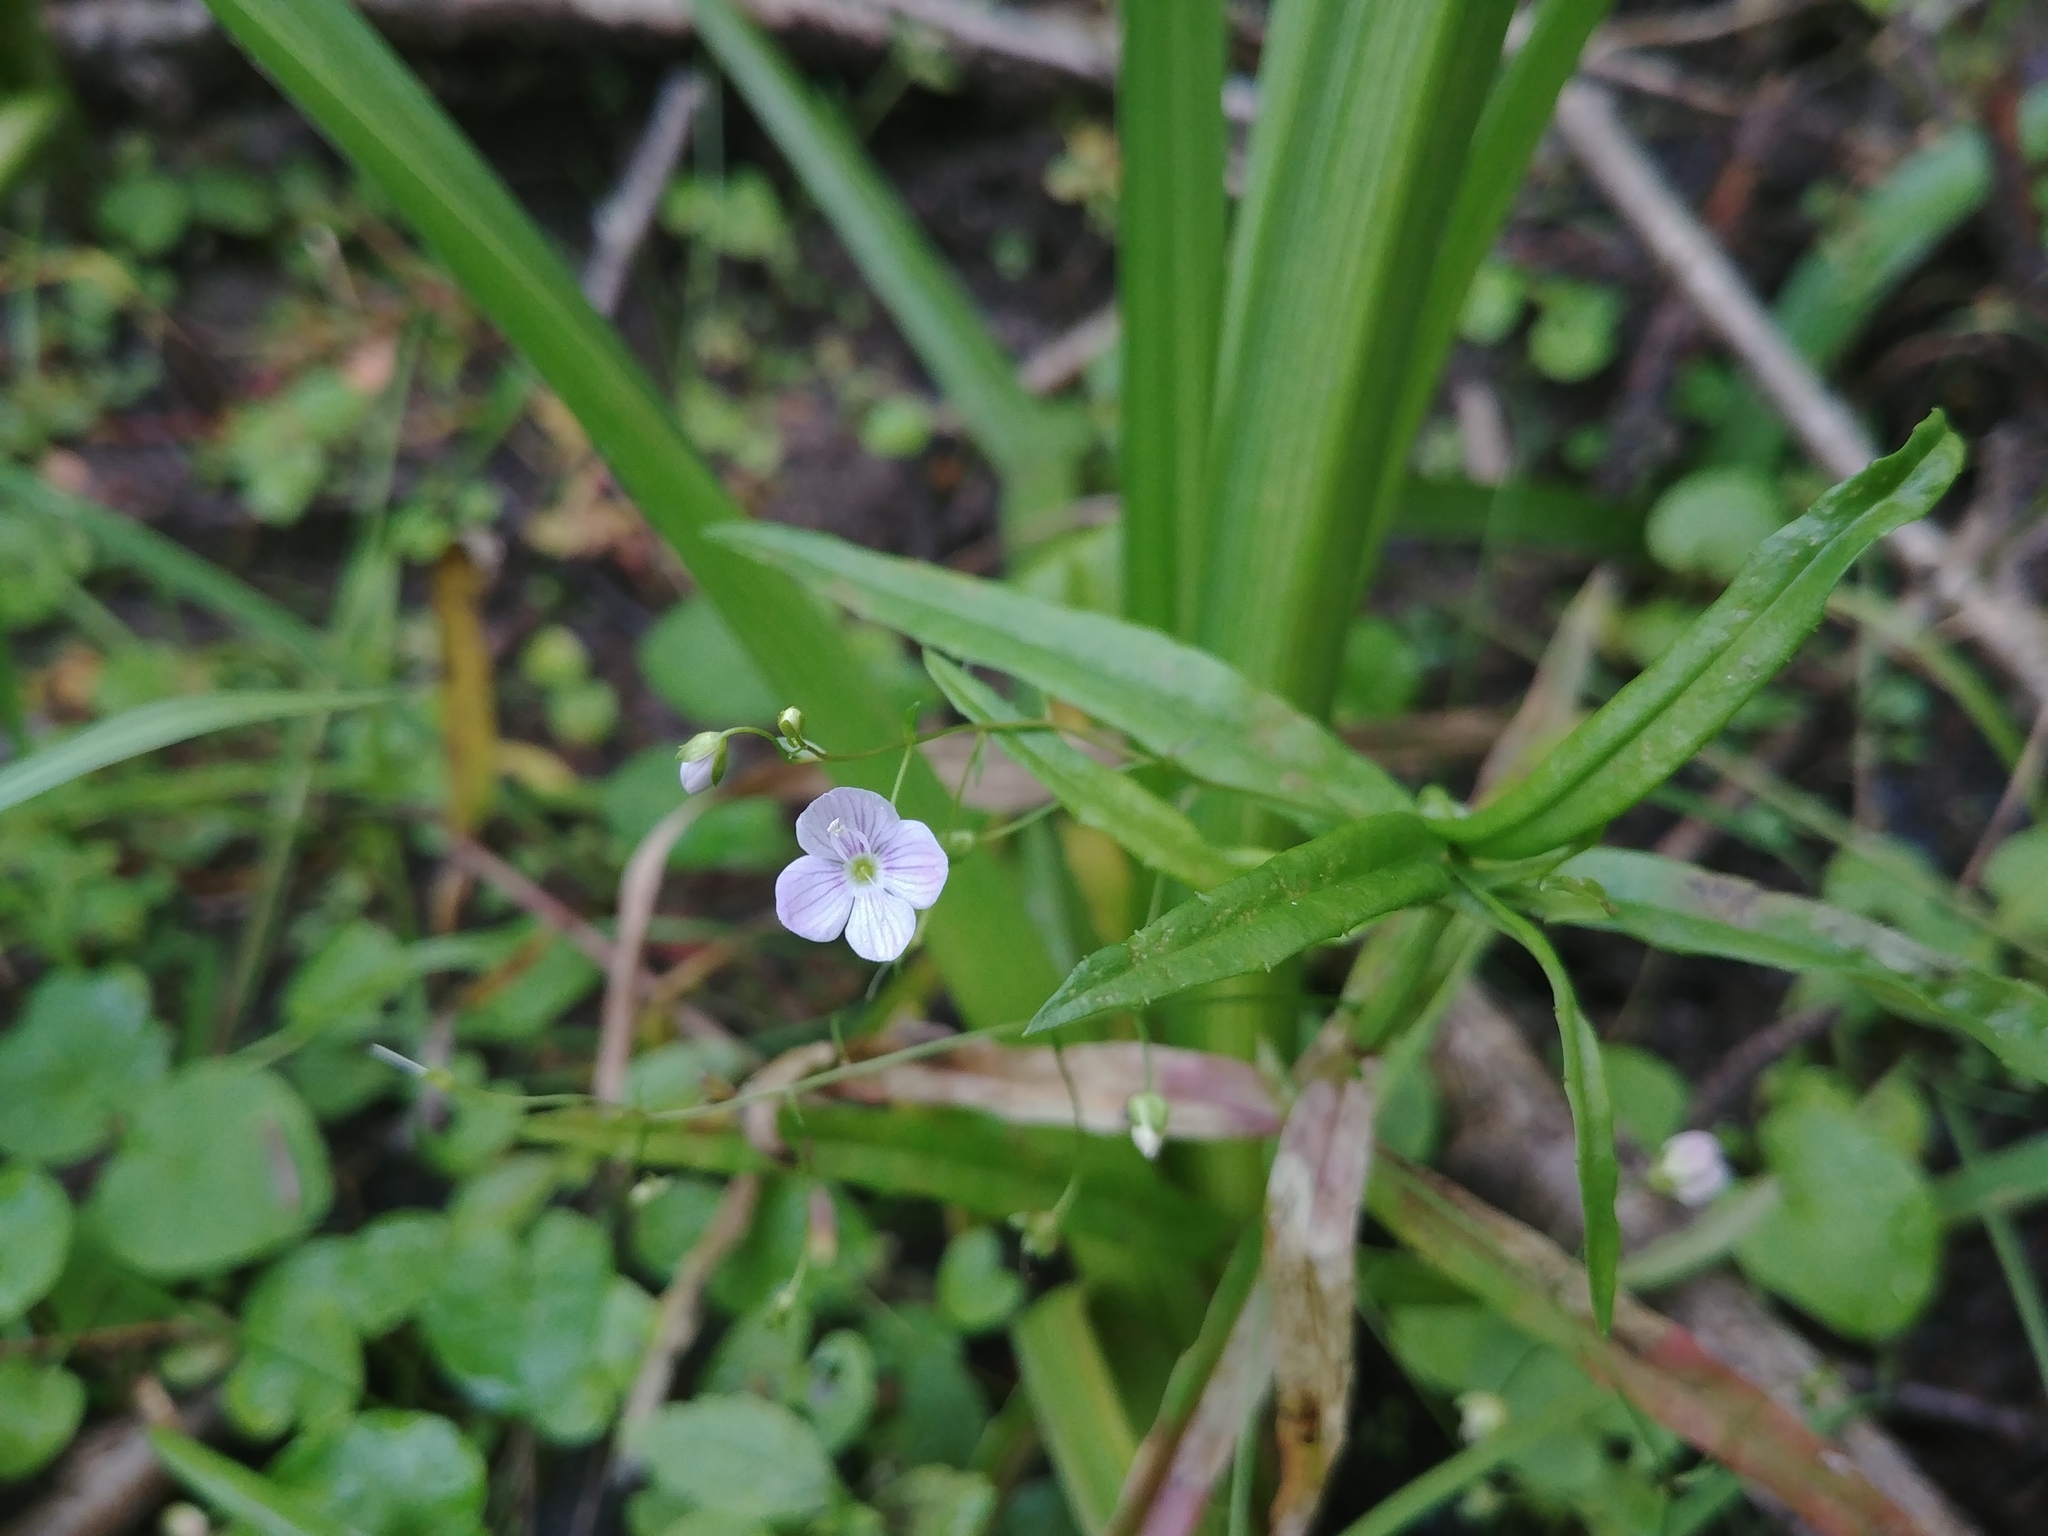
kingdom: Plantae
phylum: Tracheophyta
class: Magnoliopsida
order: Lamiales
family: Plantaginaceae
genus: Veronica
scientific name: Veronica scutellata
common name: Marsh speedwell
